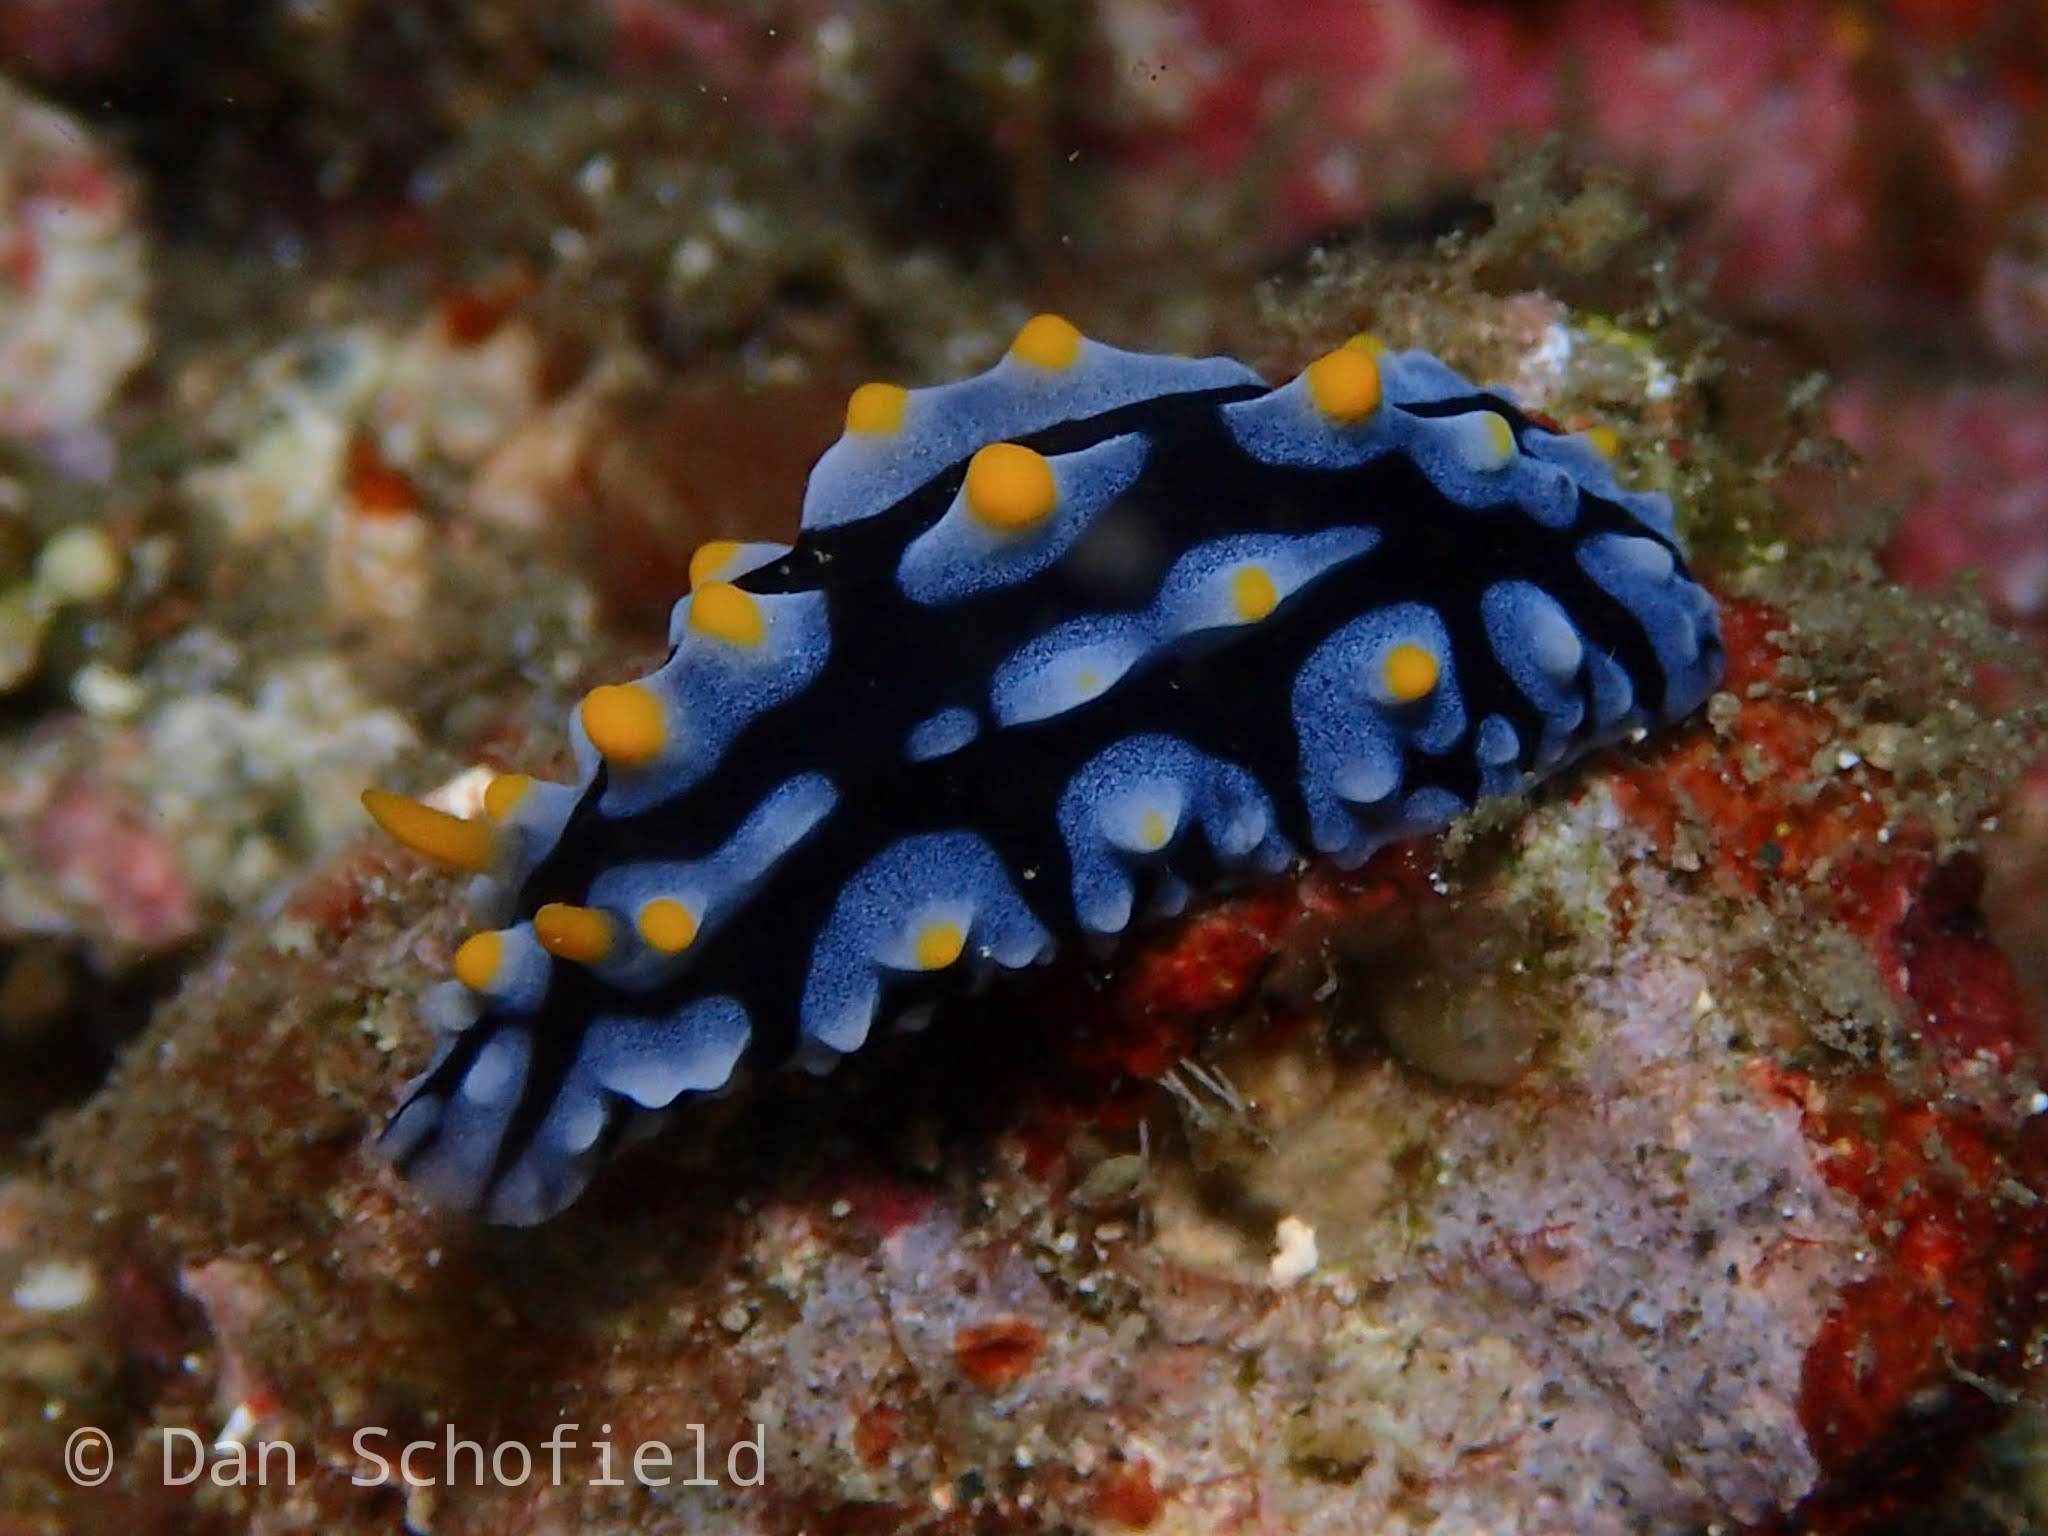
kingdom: Animalia
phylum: Mollusca
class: Gastropoda
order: Nudibranchia
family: Phyllidiidae
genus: Phyllidia
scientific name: Phyllidia picta
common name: Black-rayed phyllidia
